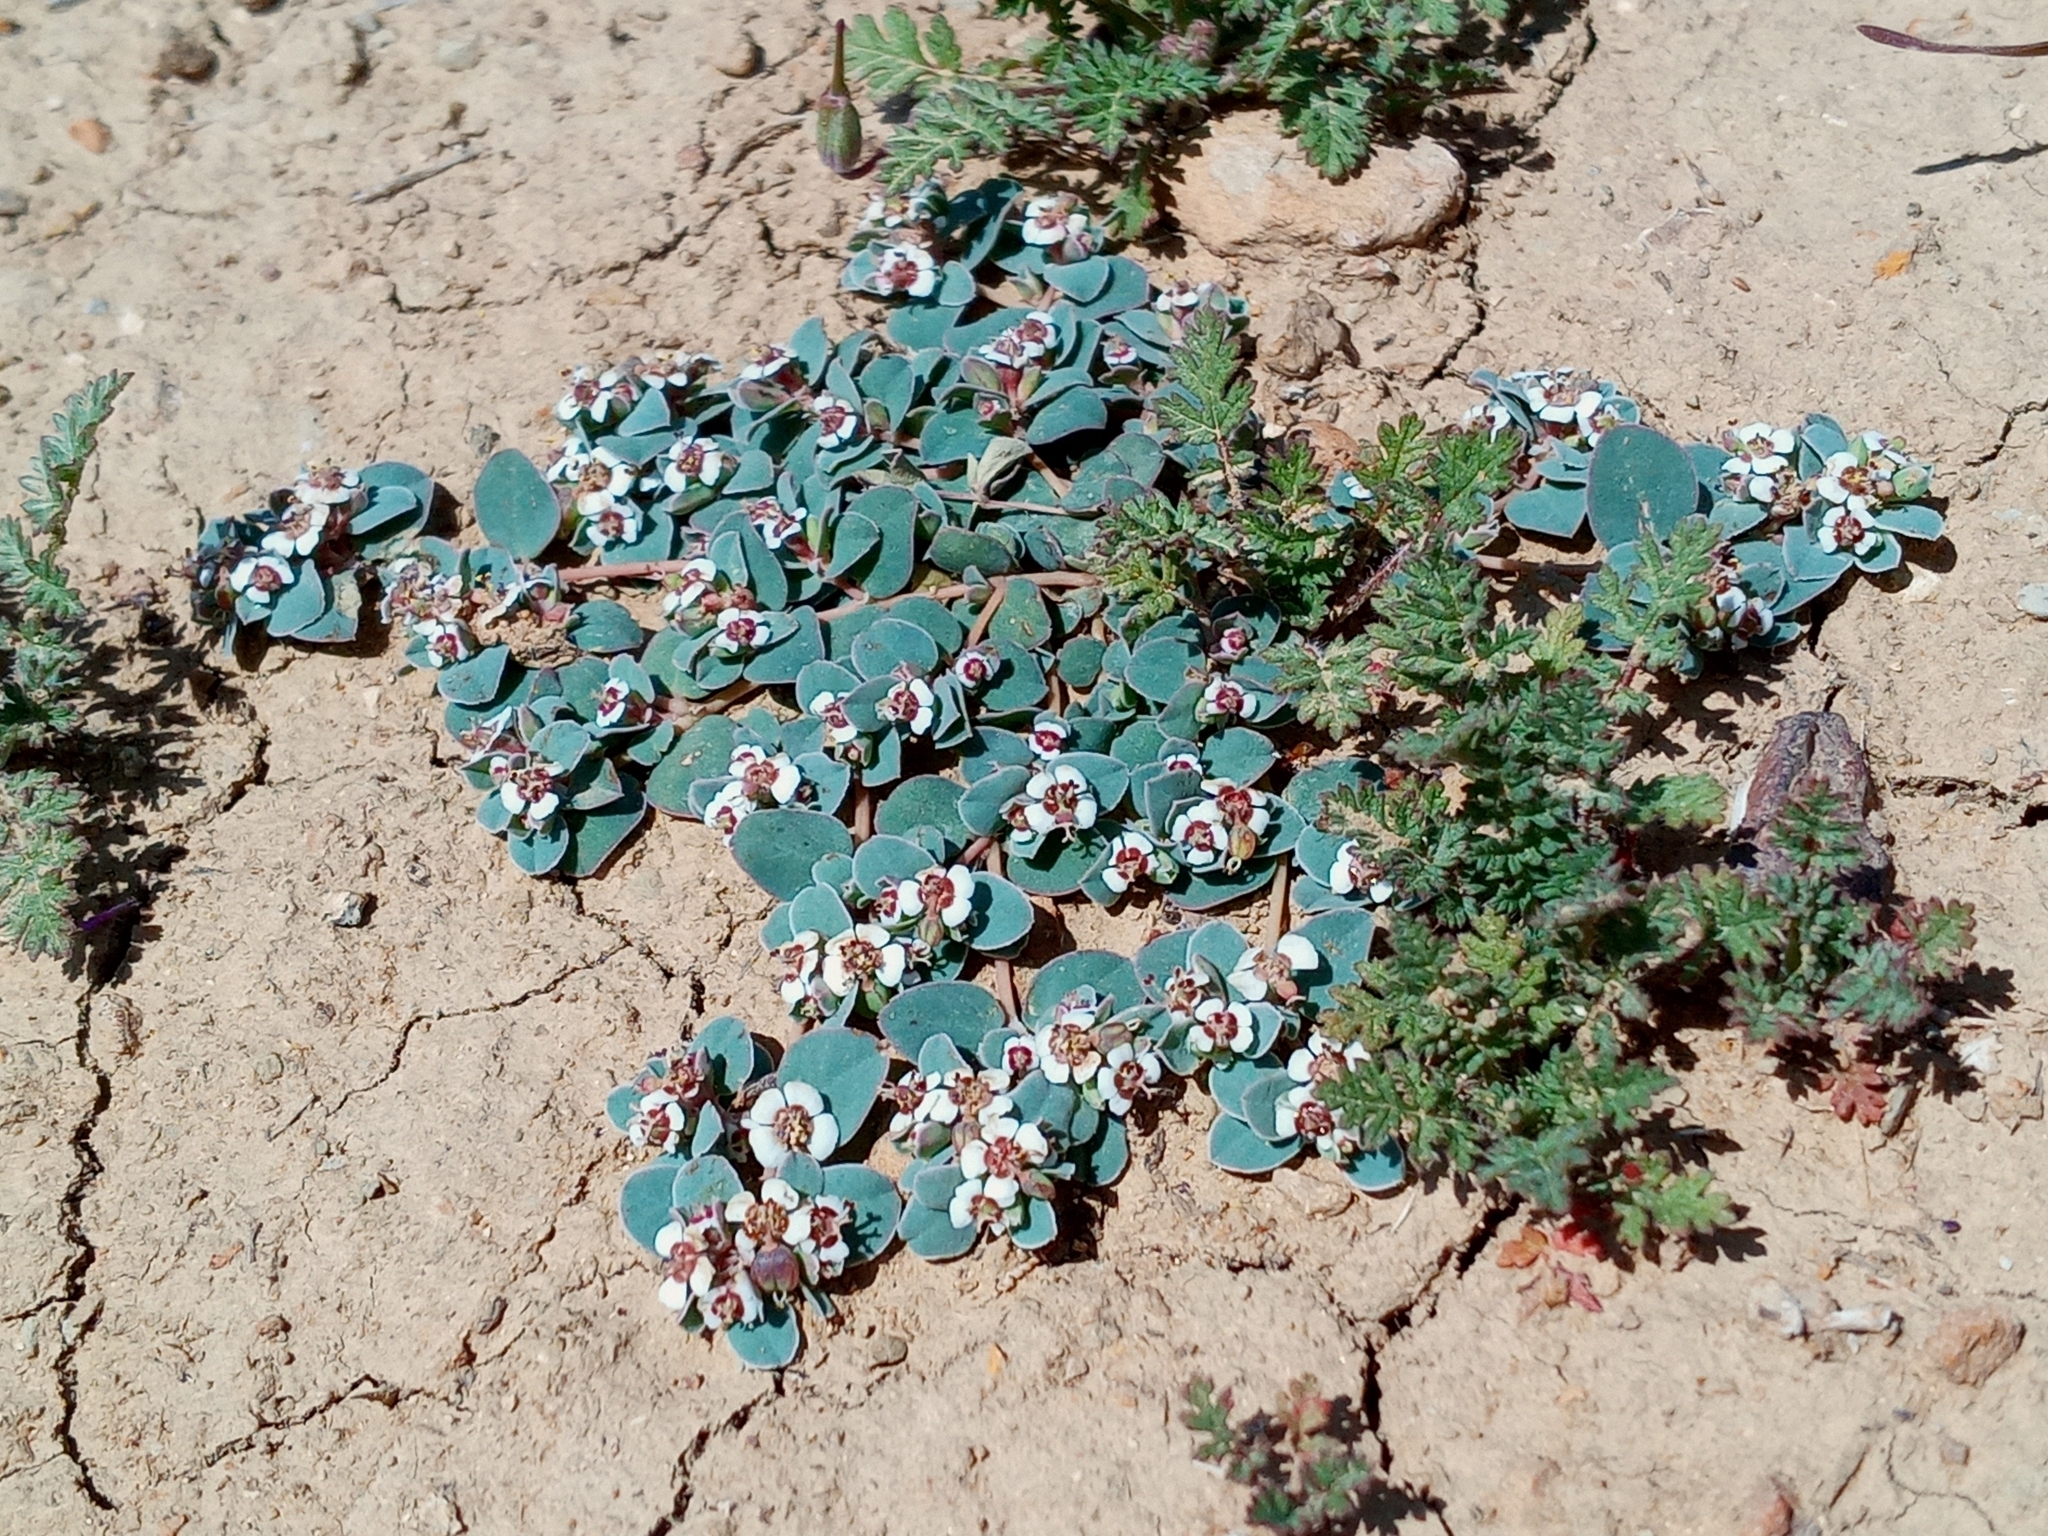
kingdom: Plantae
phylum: Tracheophyta
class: Magnoliopsida
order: Malpighiales
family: Euphorbiaceae
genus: Euphorbia
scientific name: Euphorbia albomarginata
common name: Whitemargin sandmat
